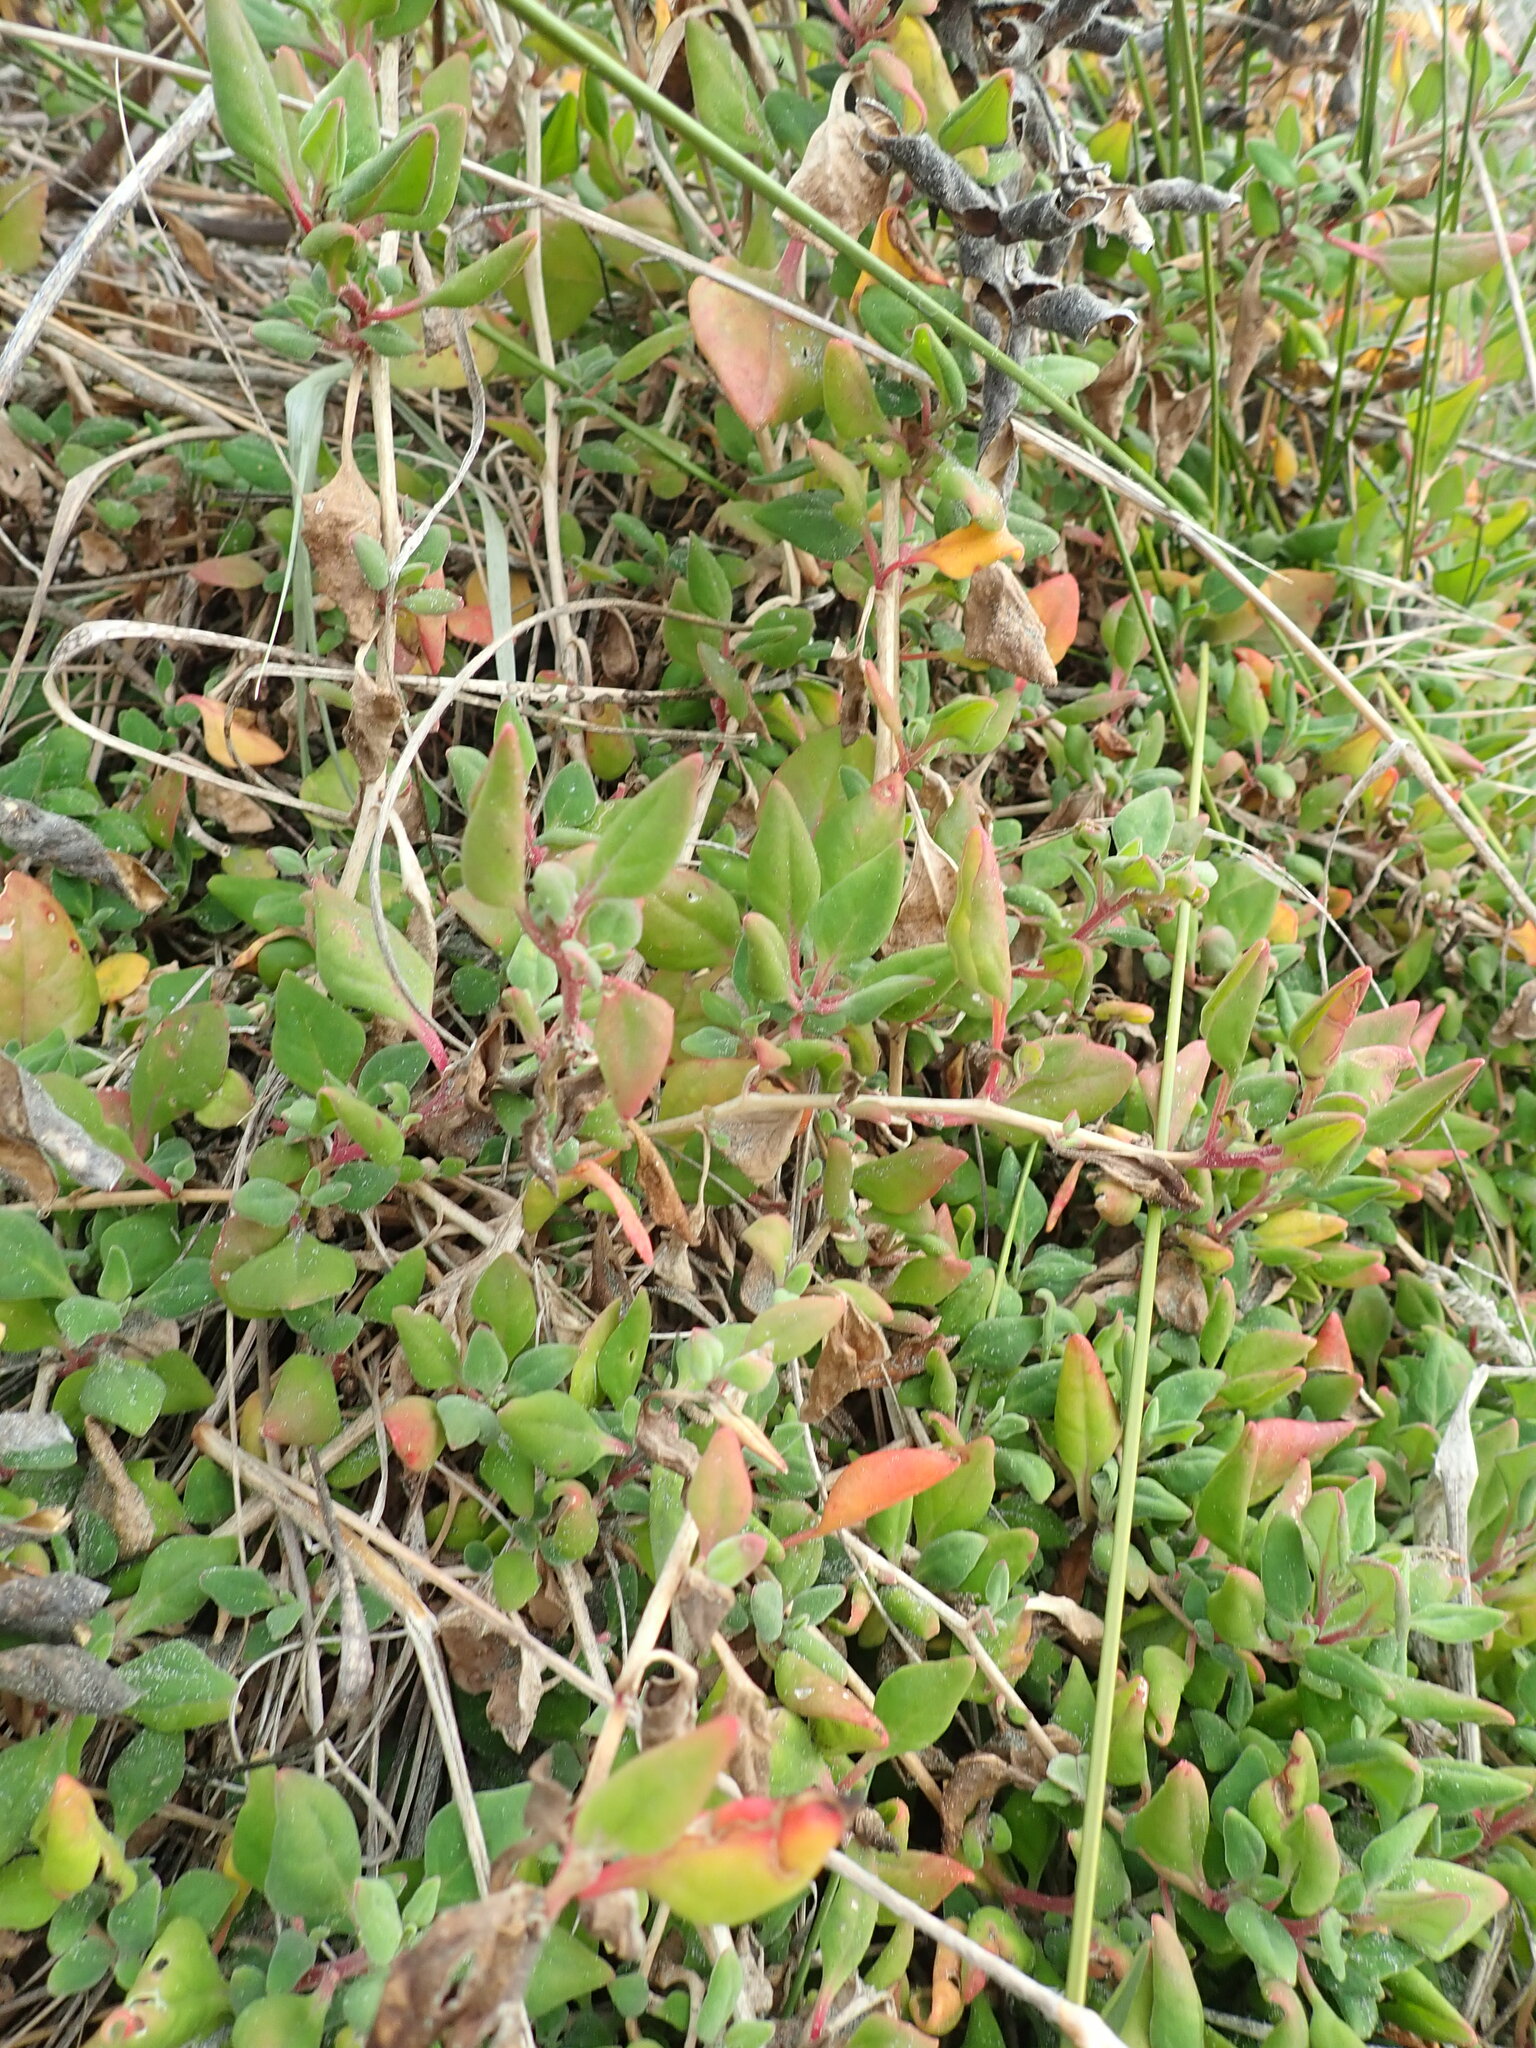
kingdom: Plantae
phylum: Tracheophyta
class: Magnoliopsida
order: Caryophyllales
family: Aizoaceae
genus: Tetragonia
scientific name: Tetragonia implexicoma
